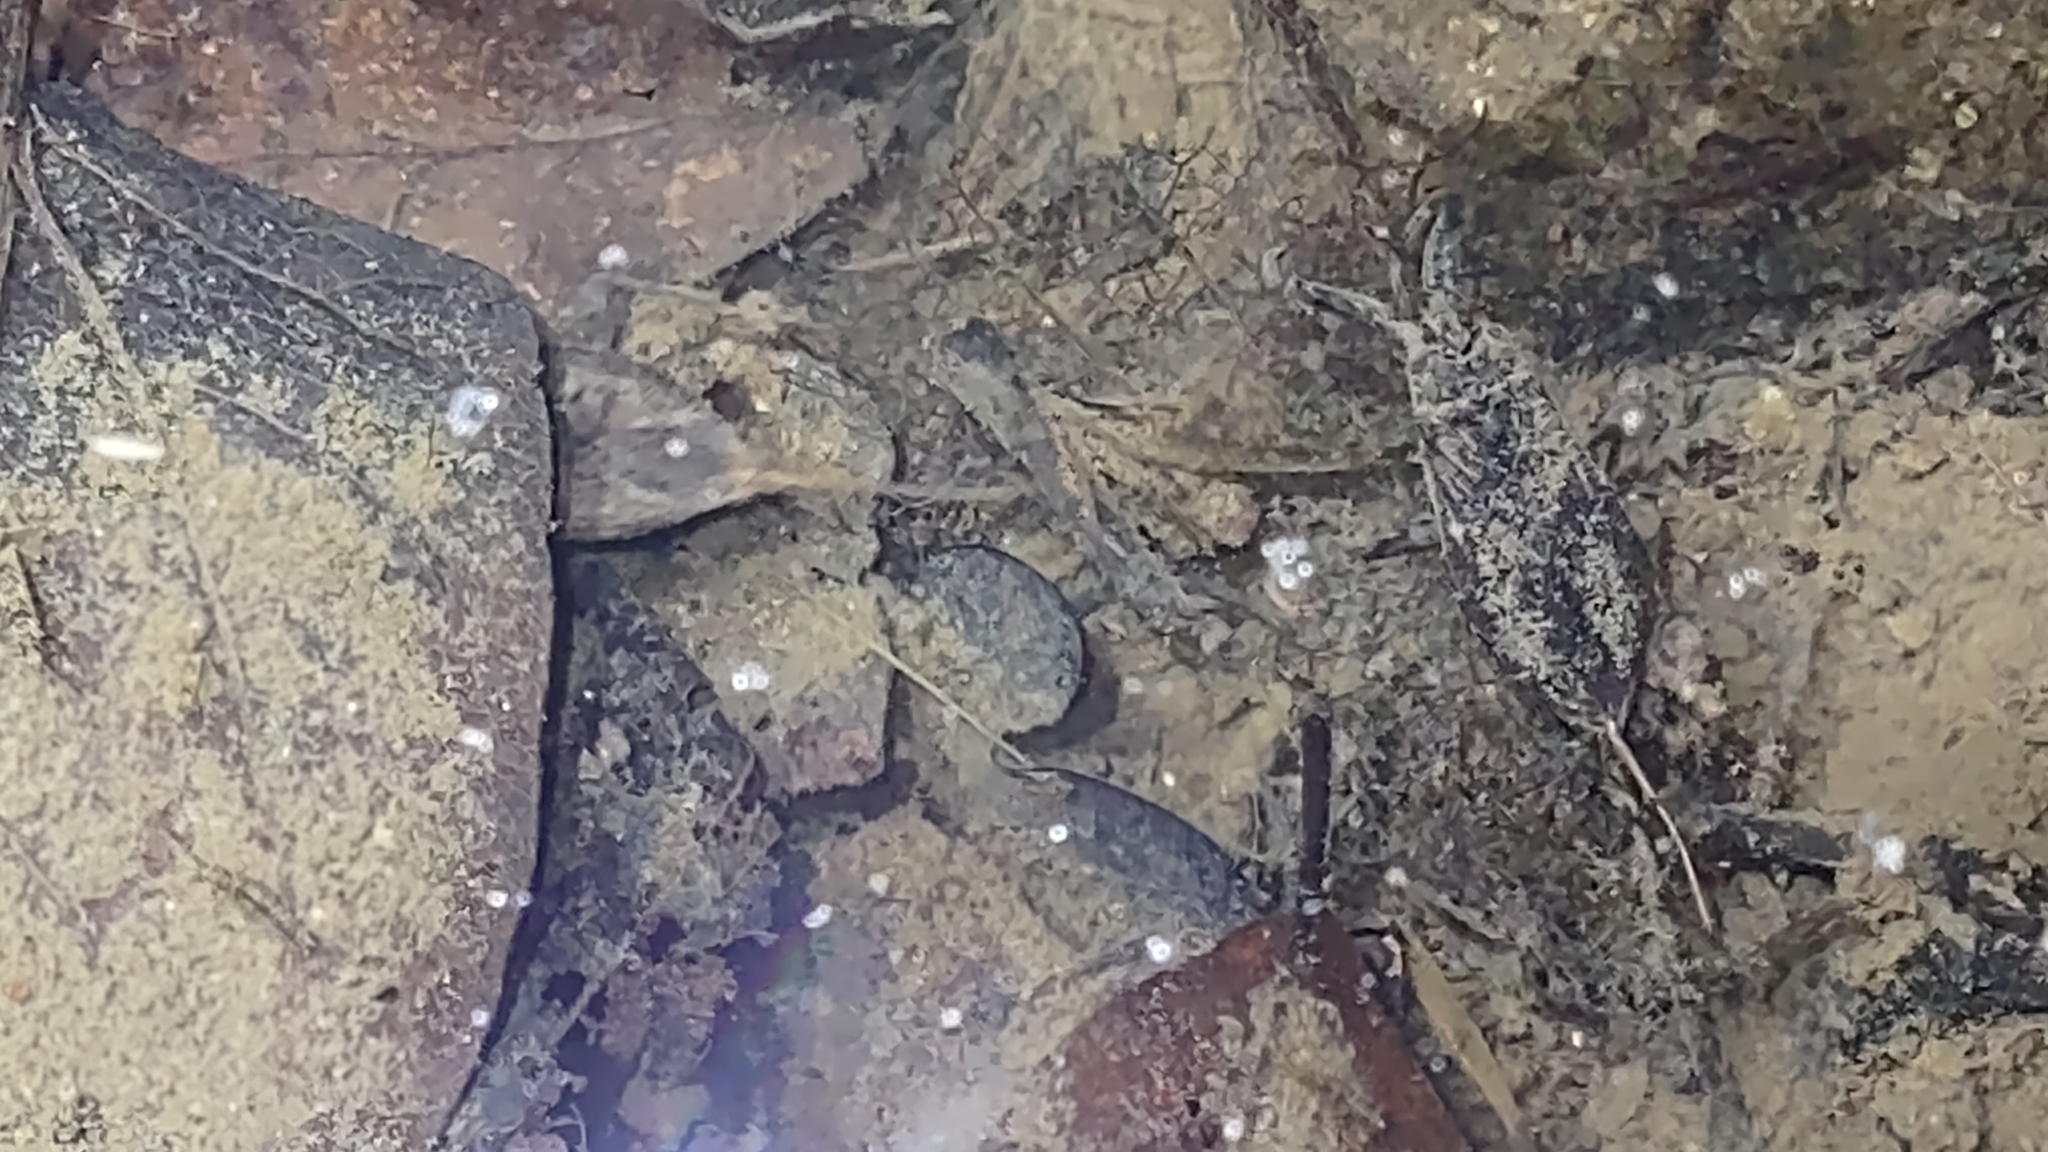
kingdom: Animalia
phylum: Arthropoda
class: Insecta
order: Hemiptera
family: Nepidae
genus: Nepa
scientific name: Nepa cinerea
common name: Water scorpion
